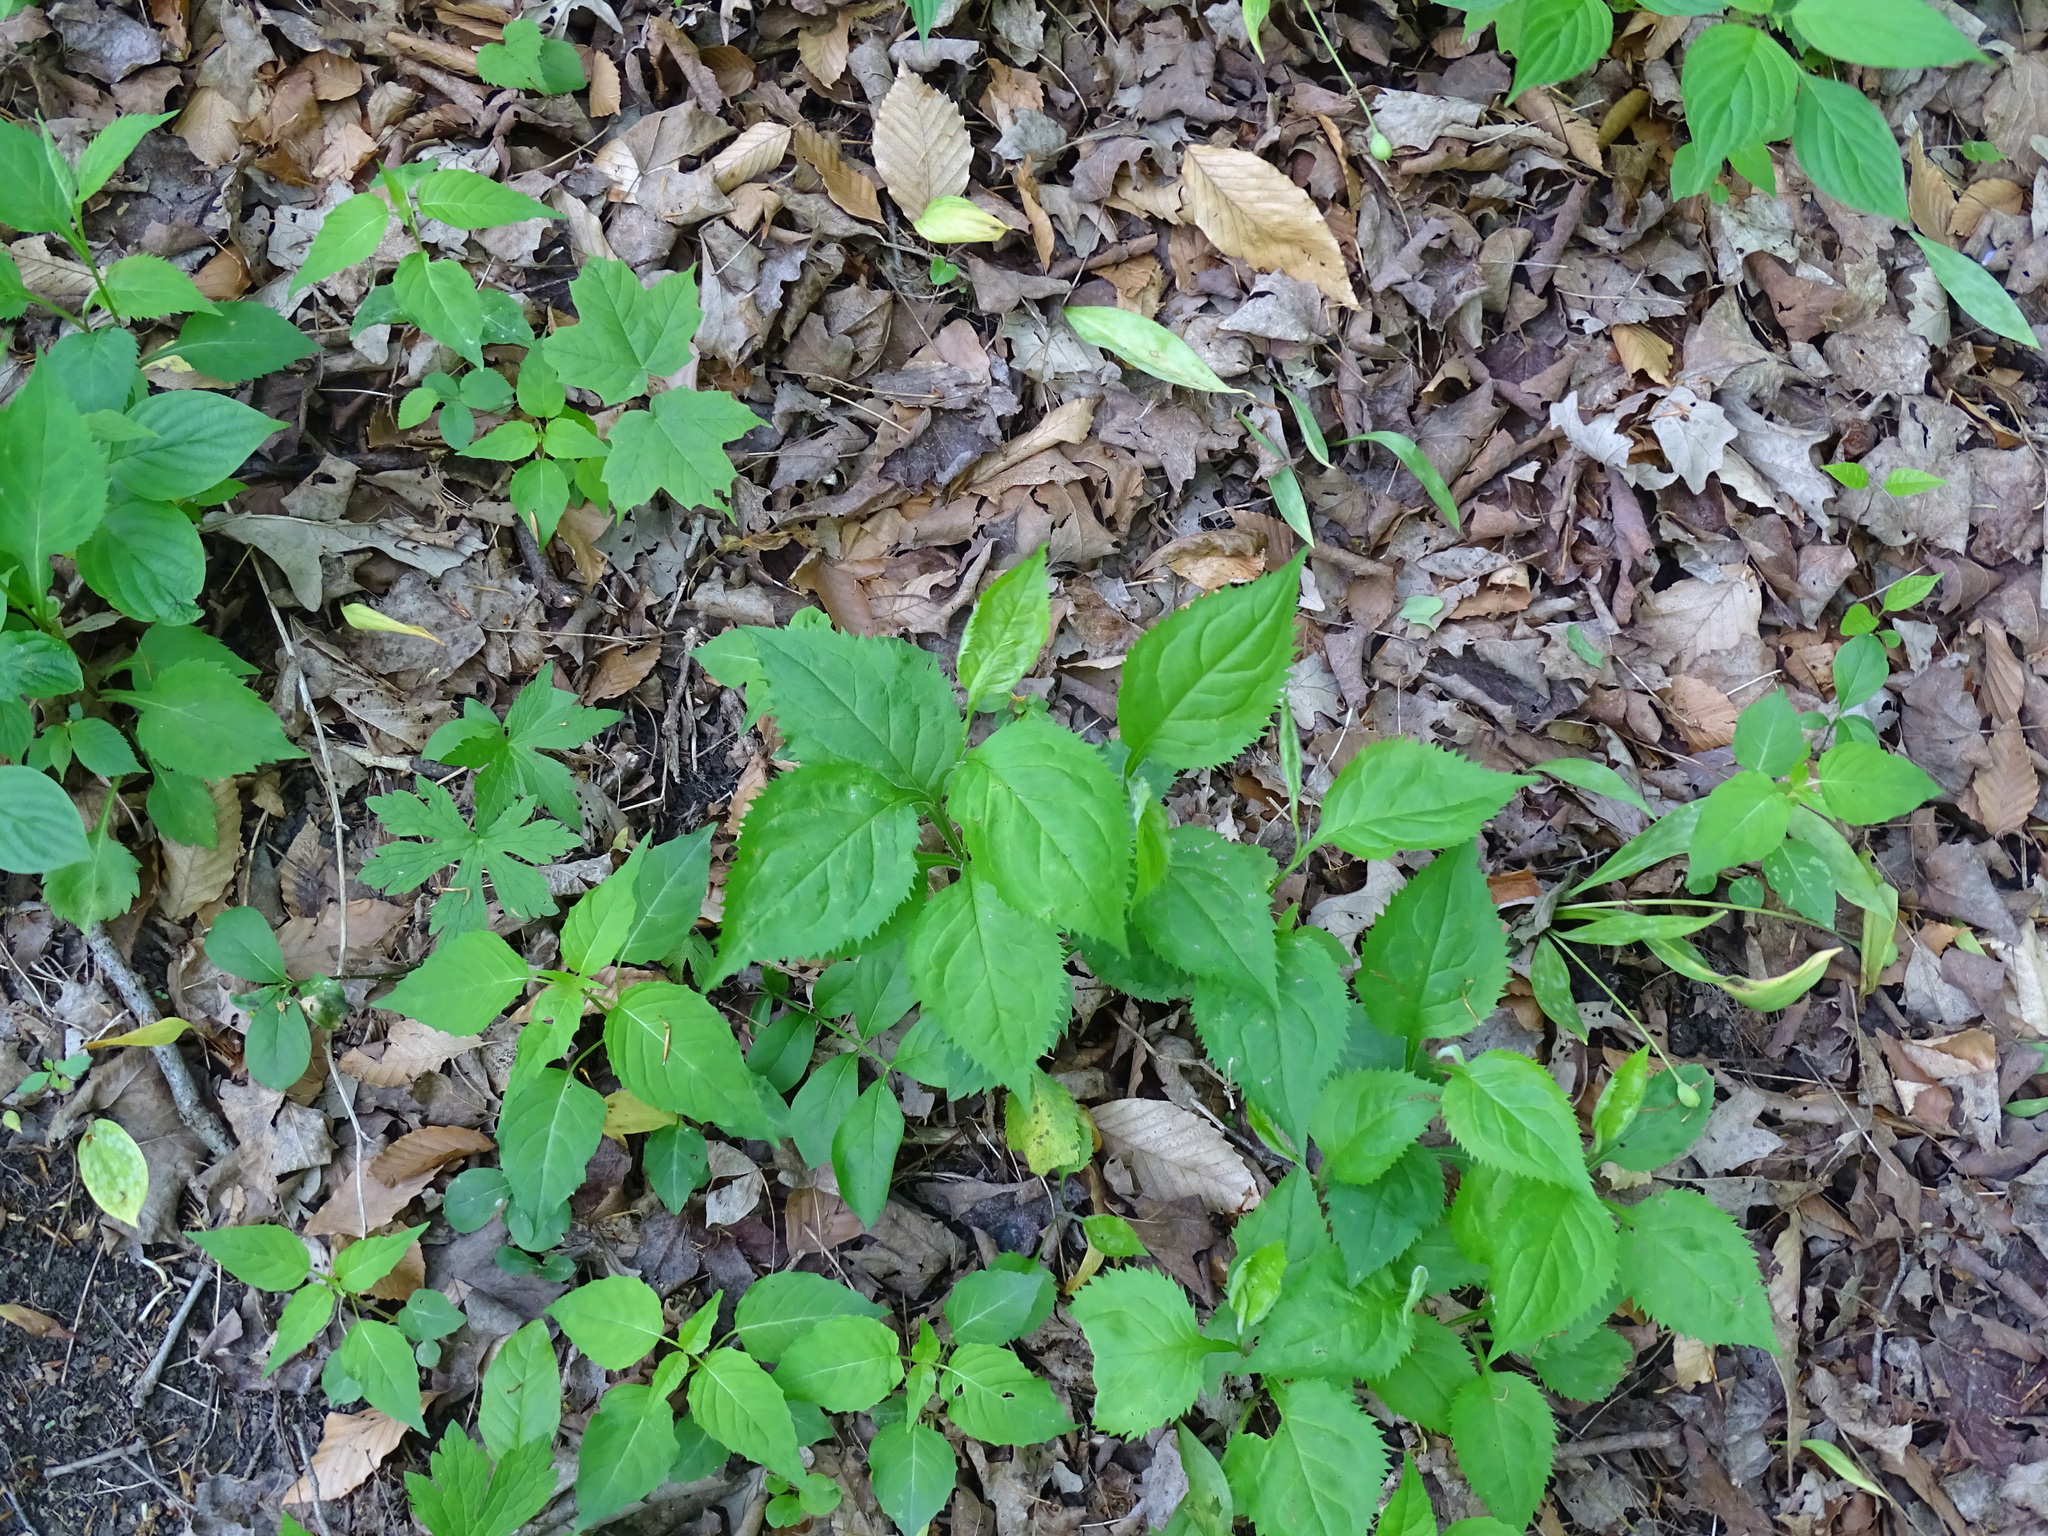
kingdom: Plantae
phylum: Tracheophyta
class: Magnoliopsida
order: Asterales
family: Asteraceae
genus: Solidago
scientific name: Solidago flexicaulis
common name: Zig-zag goldenrod
